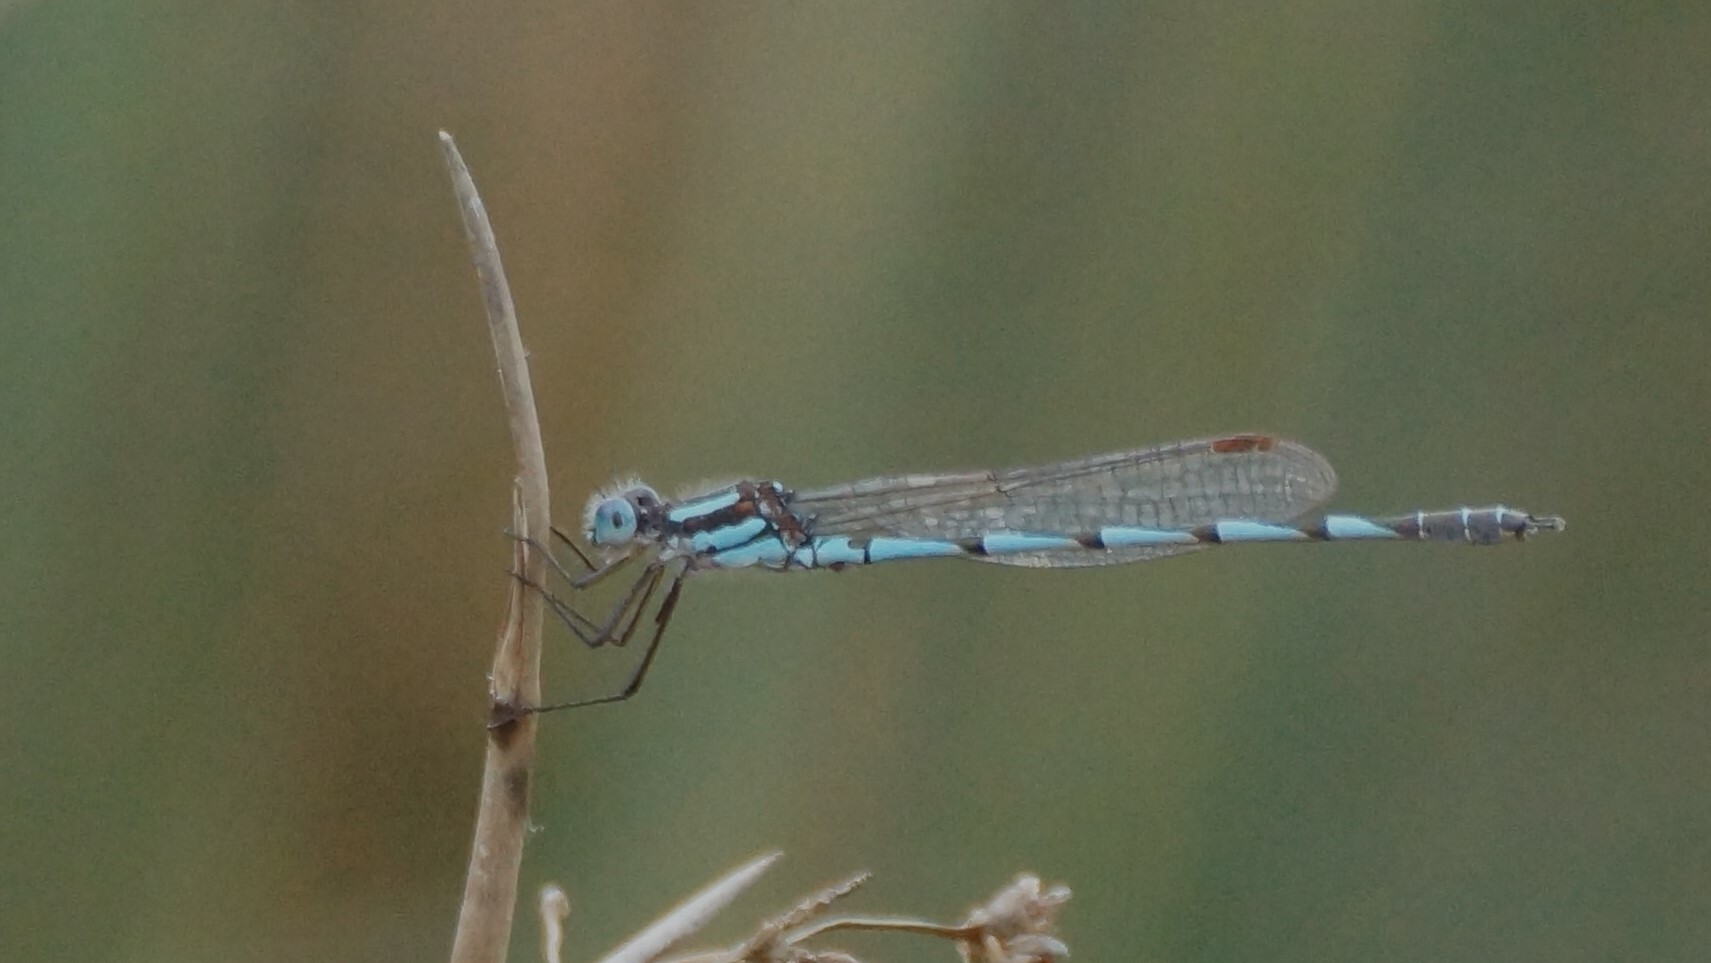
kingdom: Animalia
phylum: Arthropoda
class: Insecta
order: Odonata
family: Lestidae
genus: Austrolestes
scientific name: Austrolestes annulosus
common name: Blue ringtail
